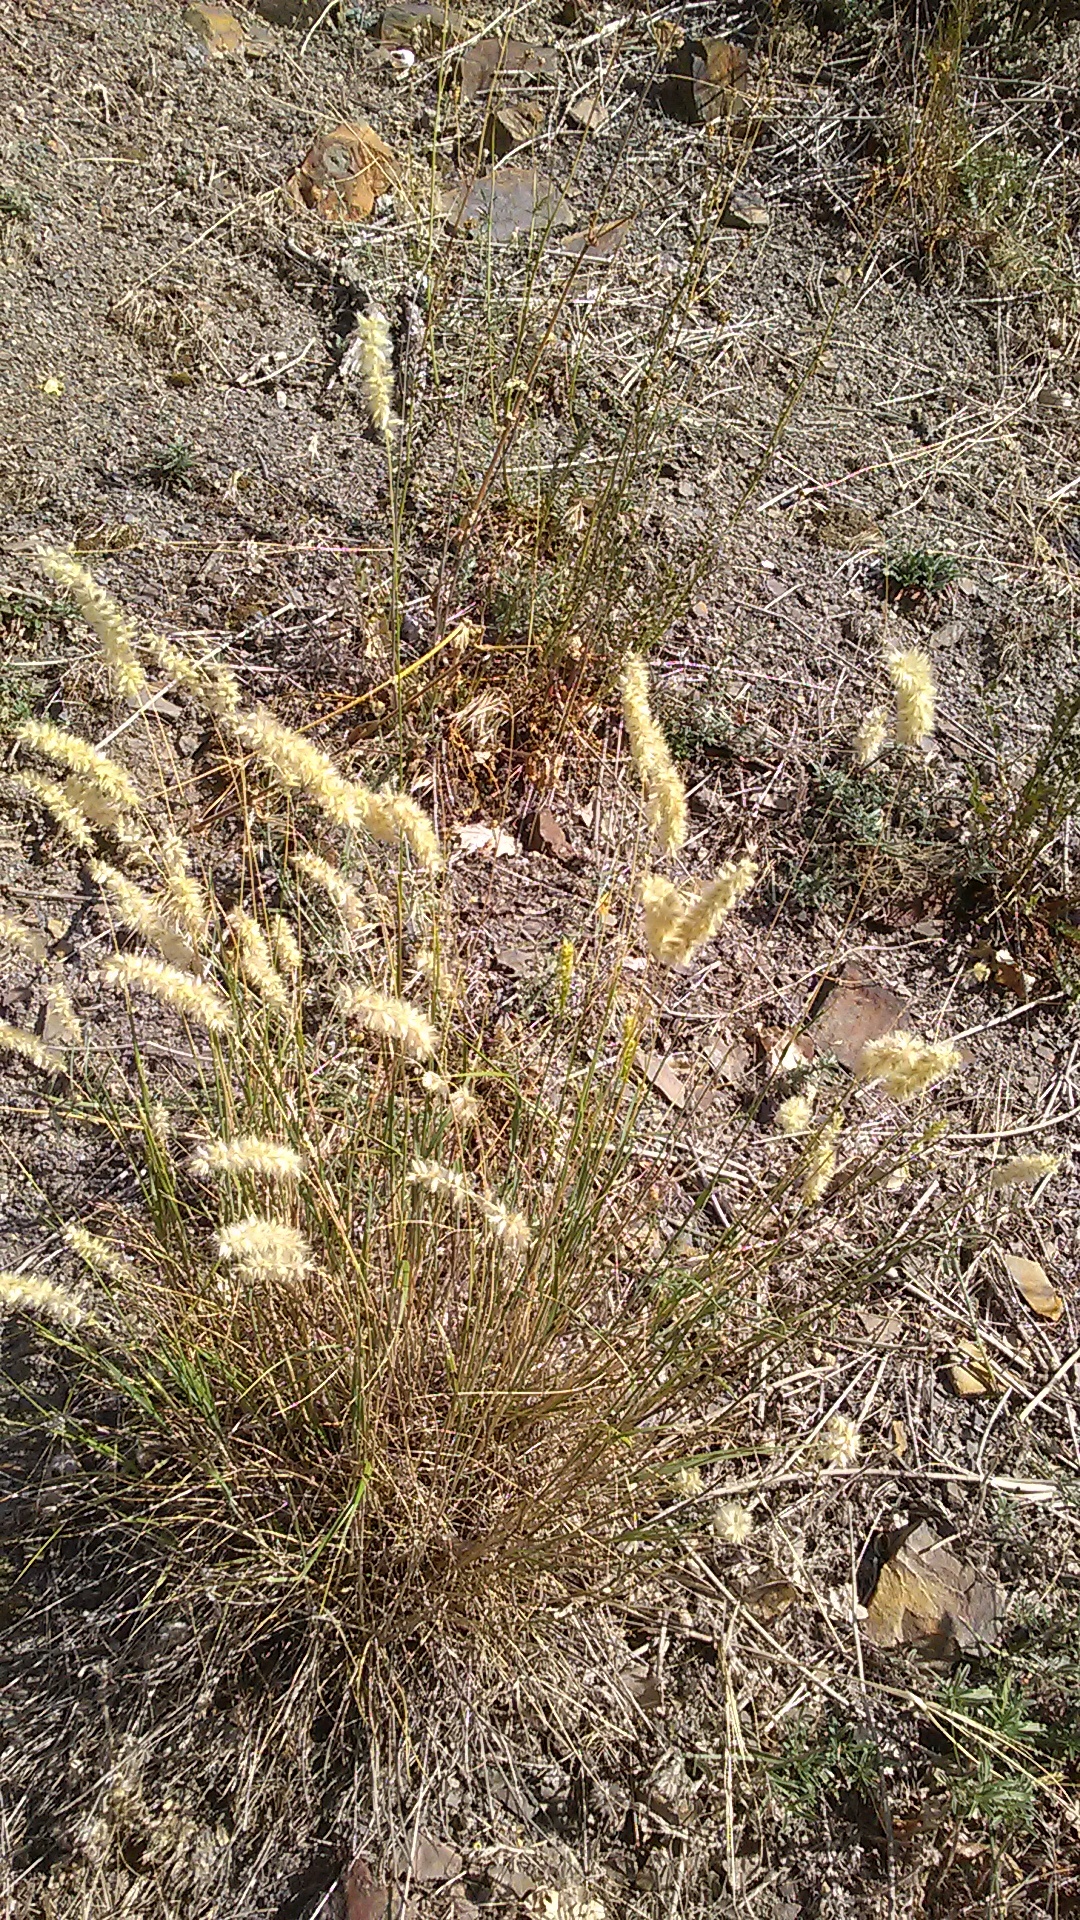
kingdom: Plantae
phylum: Tracheophyta
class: Liliopsida
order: Poales
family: Poaceae
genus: Melica
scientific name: Melica transsilvanica
